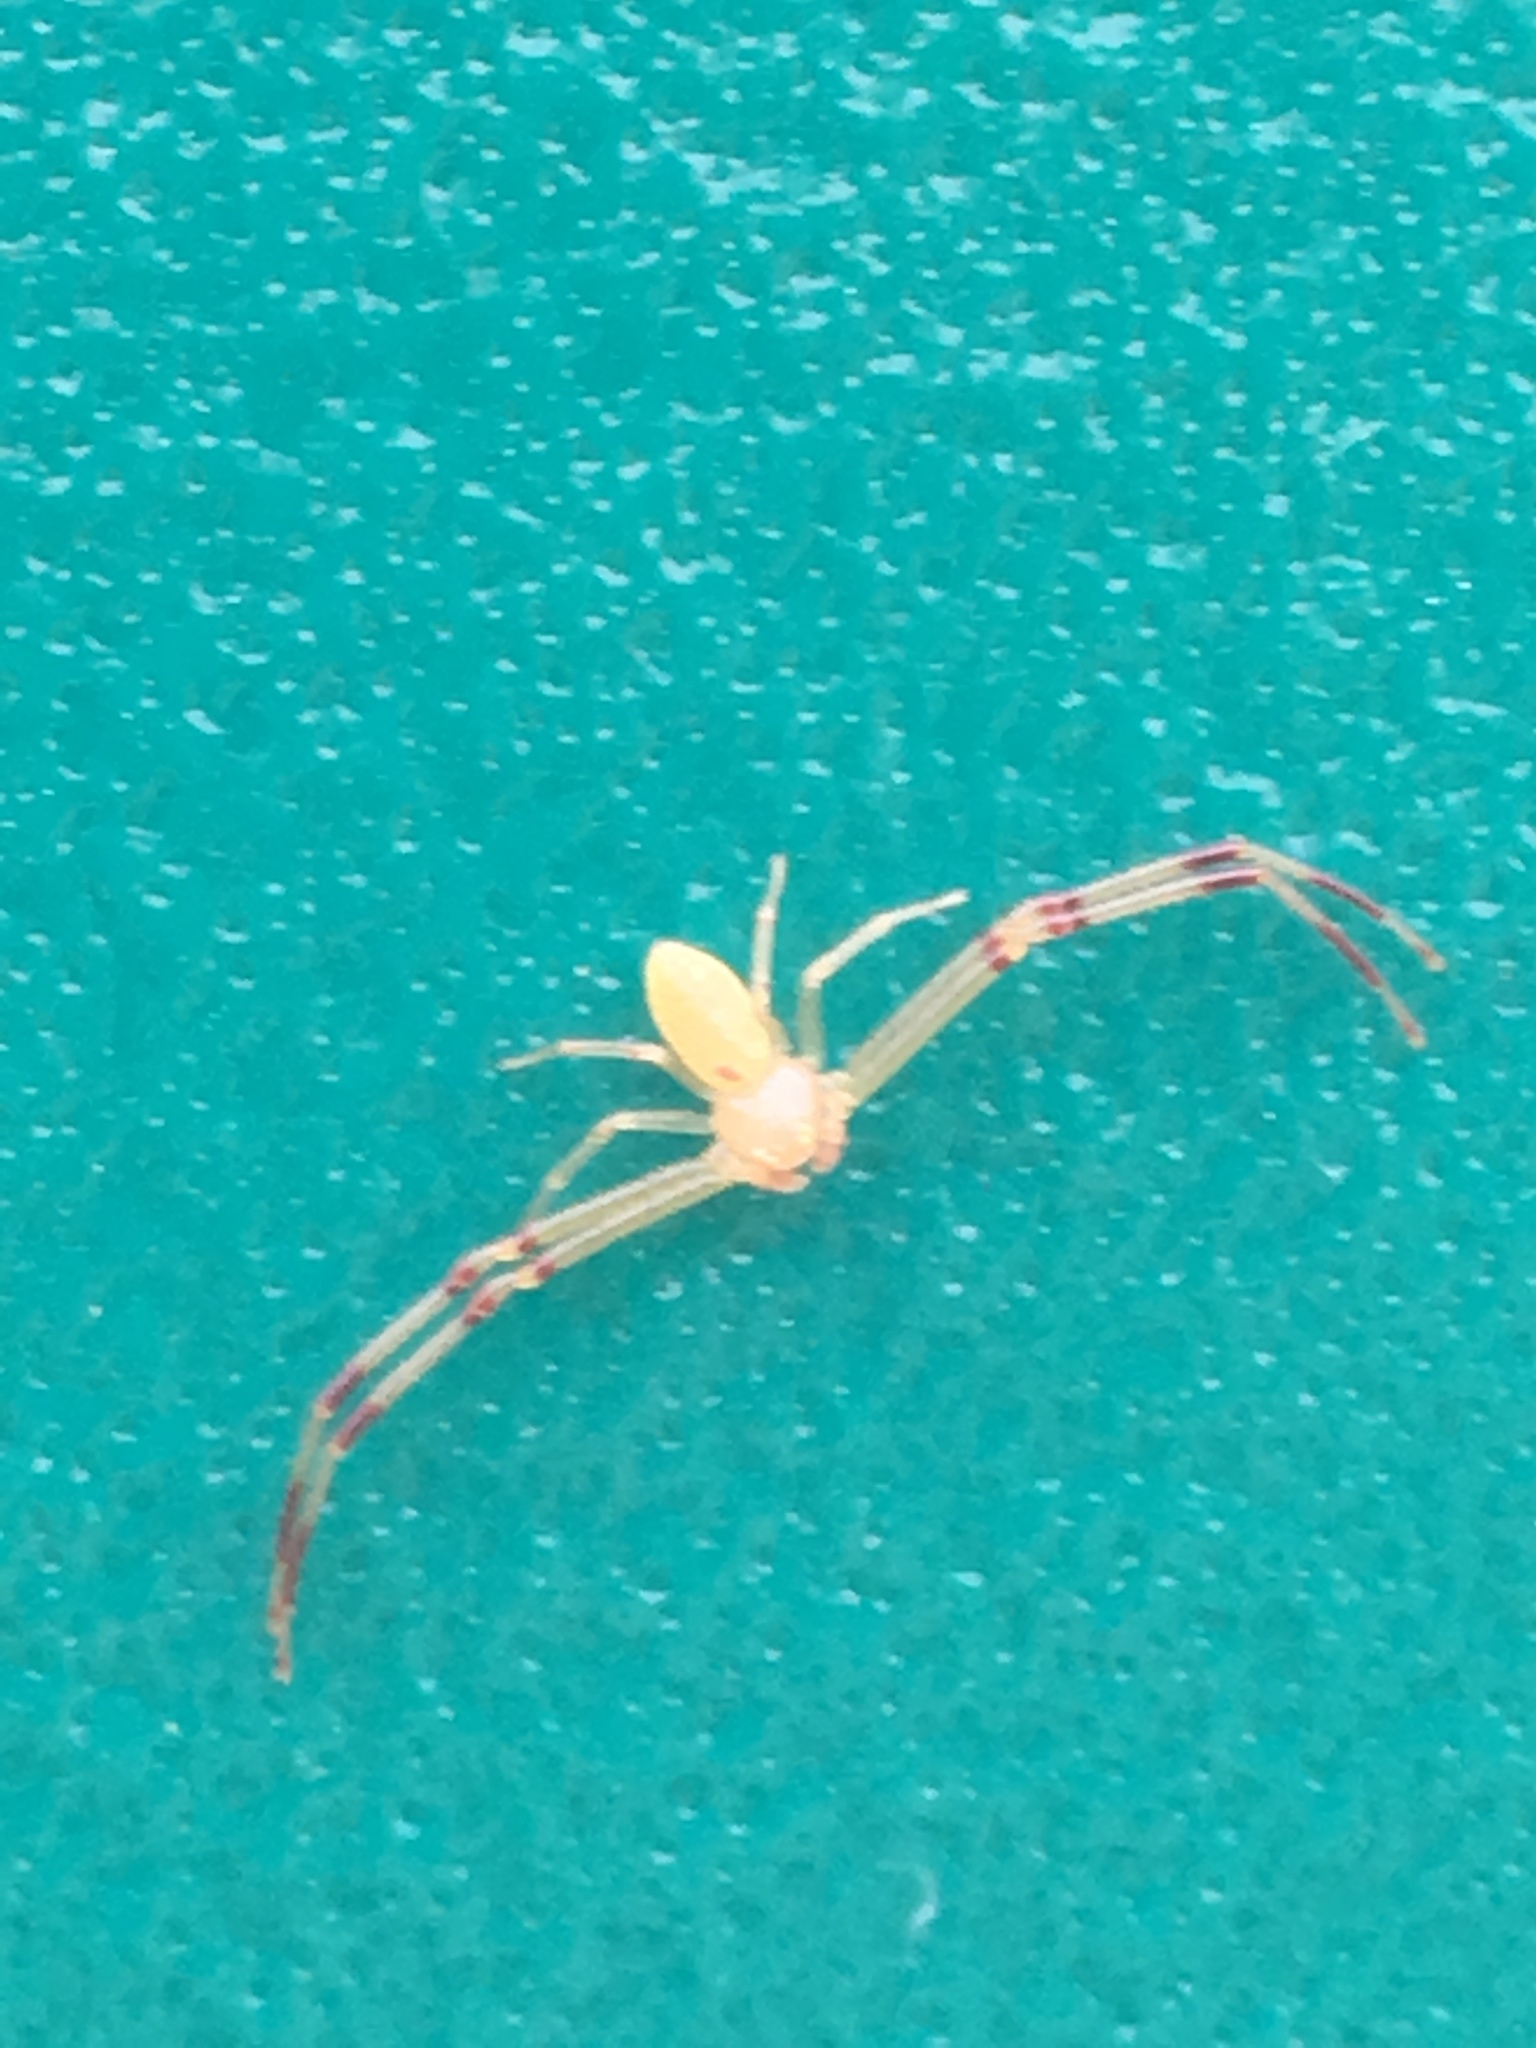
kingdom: Animalia
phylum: Arthropoda
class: Arachnida
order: Araneae
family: Thomisidae
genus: Misumessus
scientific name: Misumessus oblongus
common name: American green crab spider
